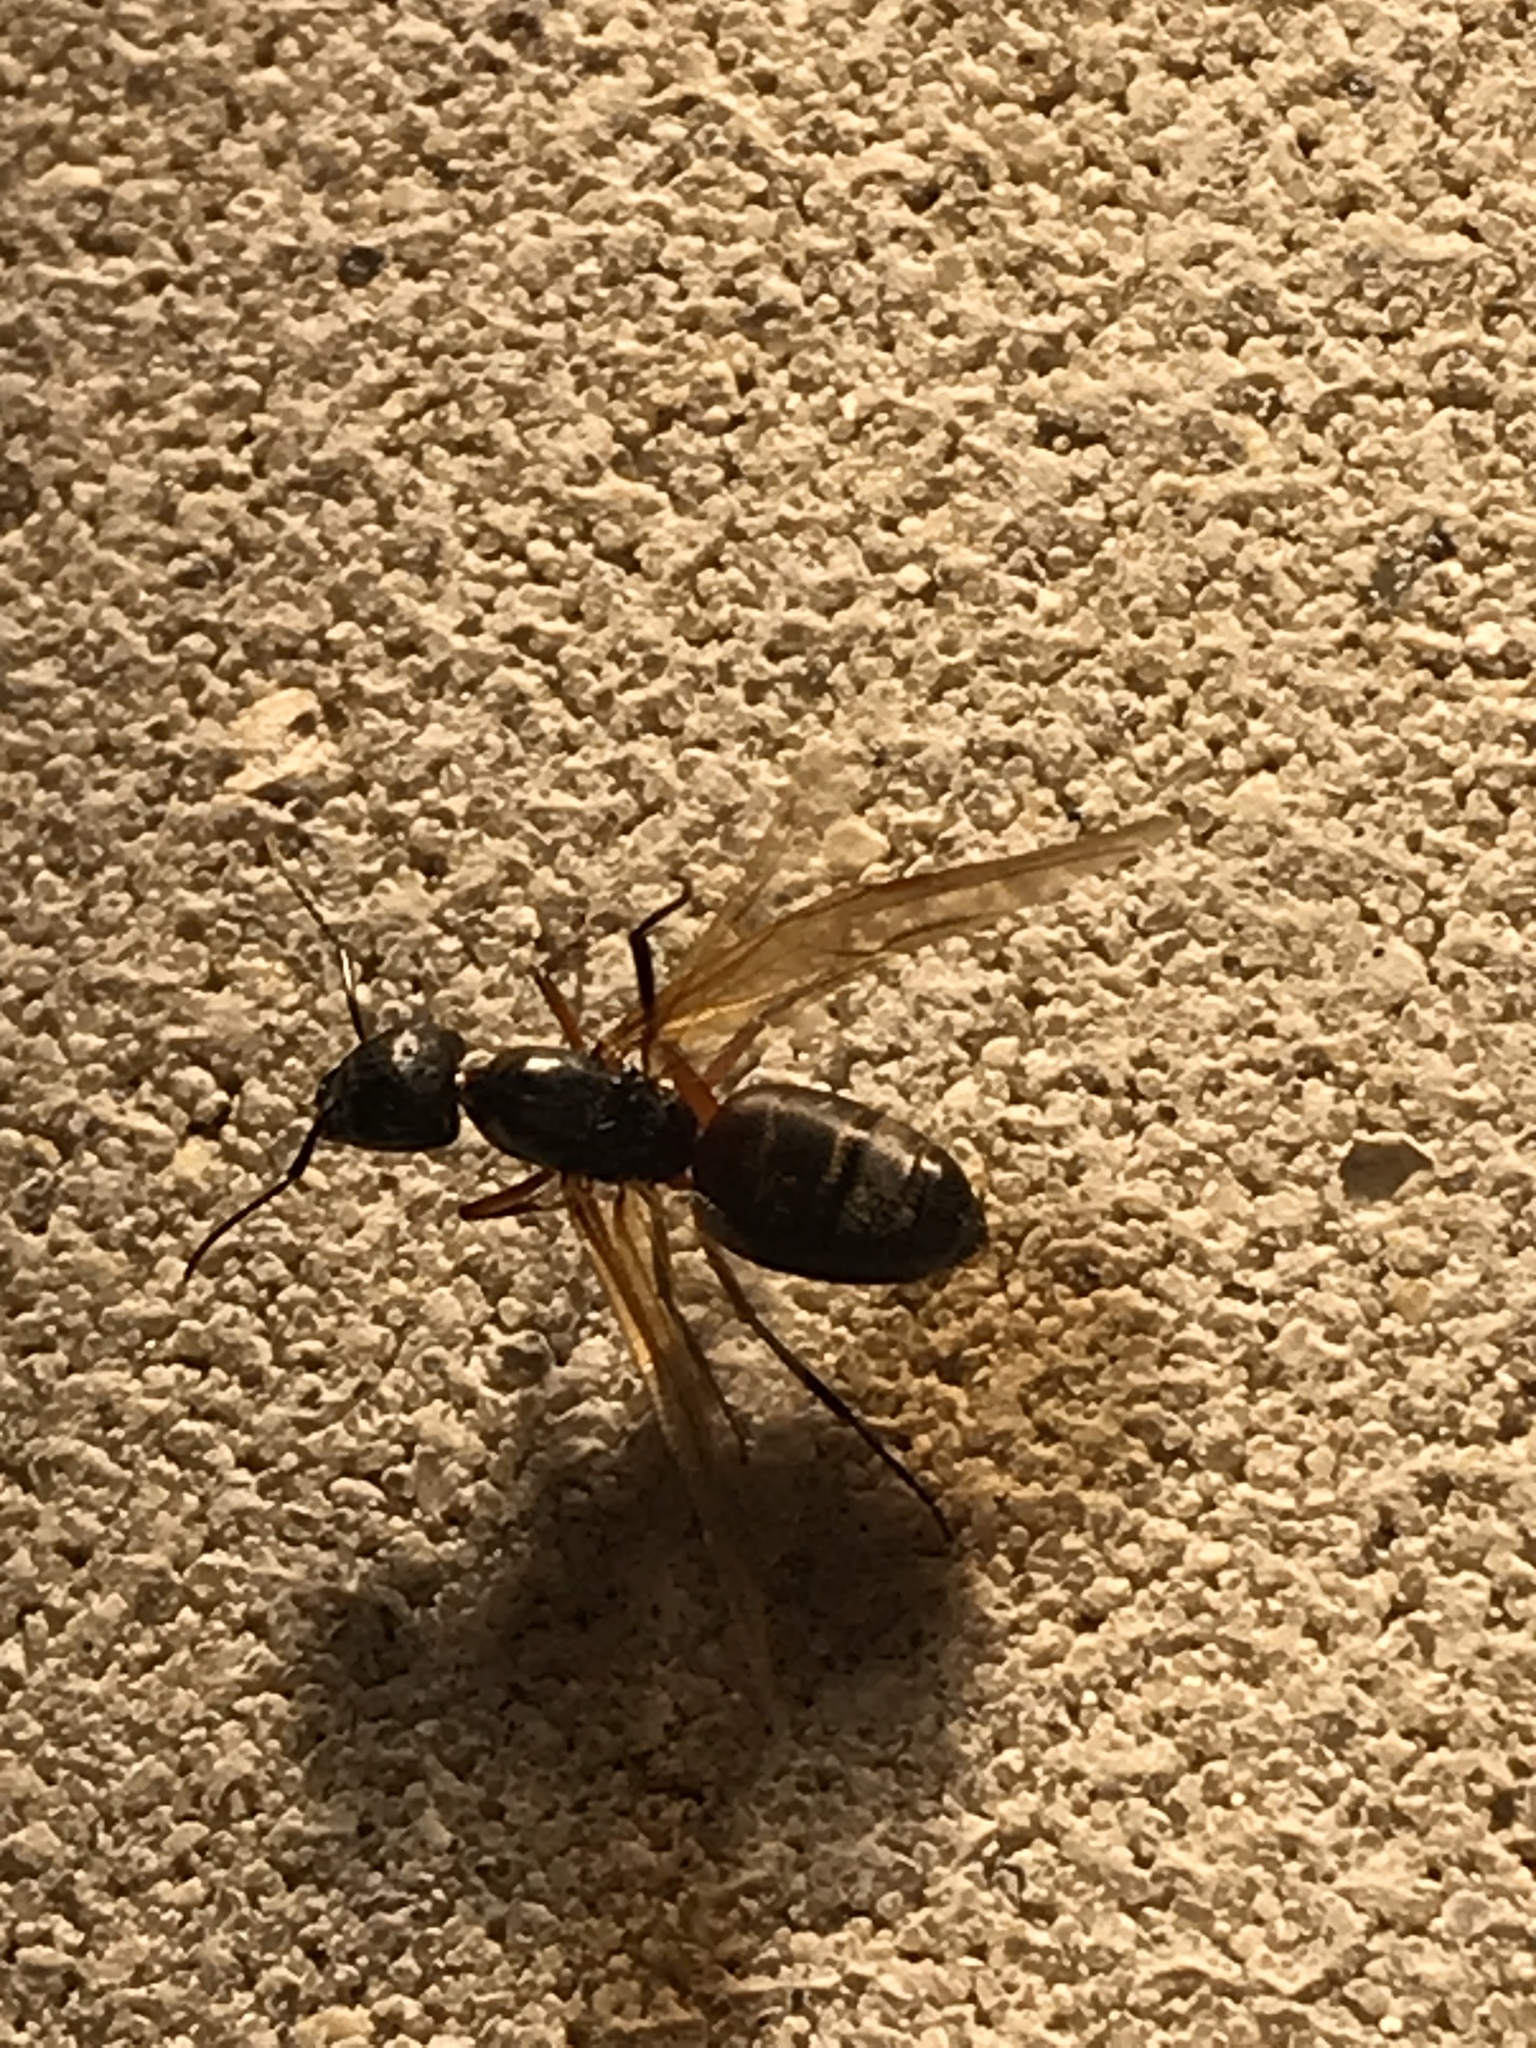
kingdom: Animalia
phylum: Arthropoda
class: Insecta
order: Hymenoptera
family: Formicidae
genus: Camponotus
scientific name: Camponotus chromaiodes
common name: Red carpenter ant
